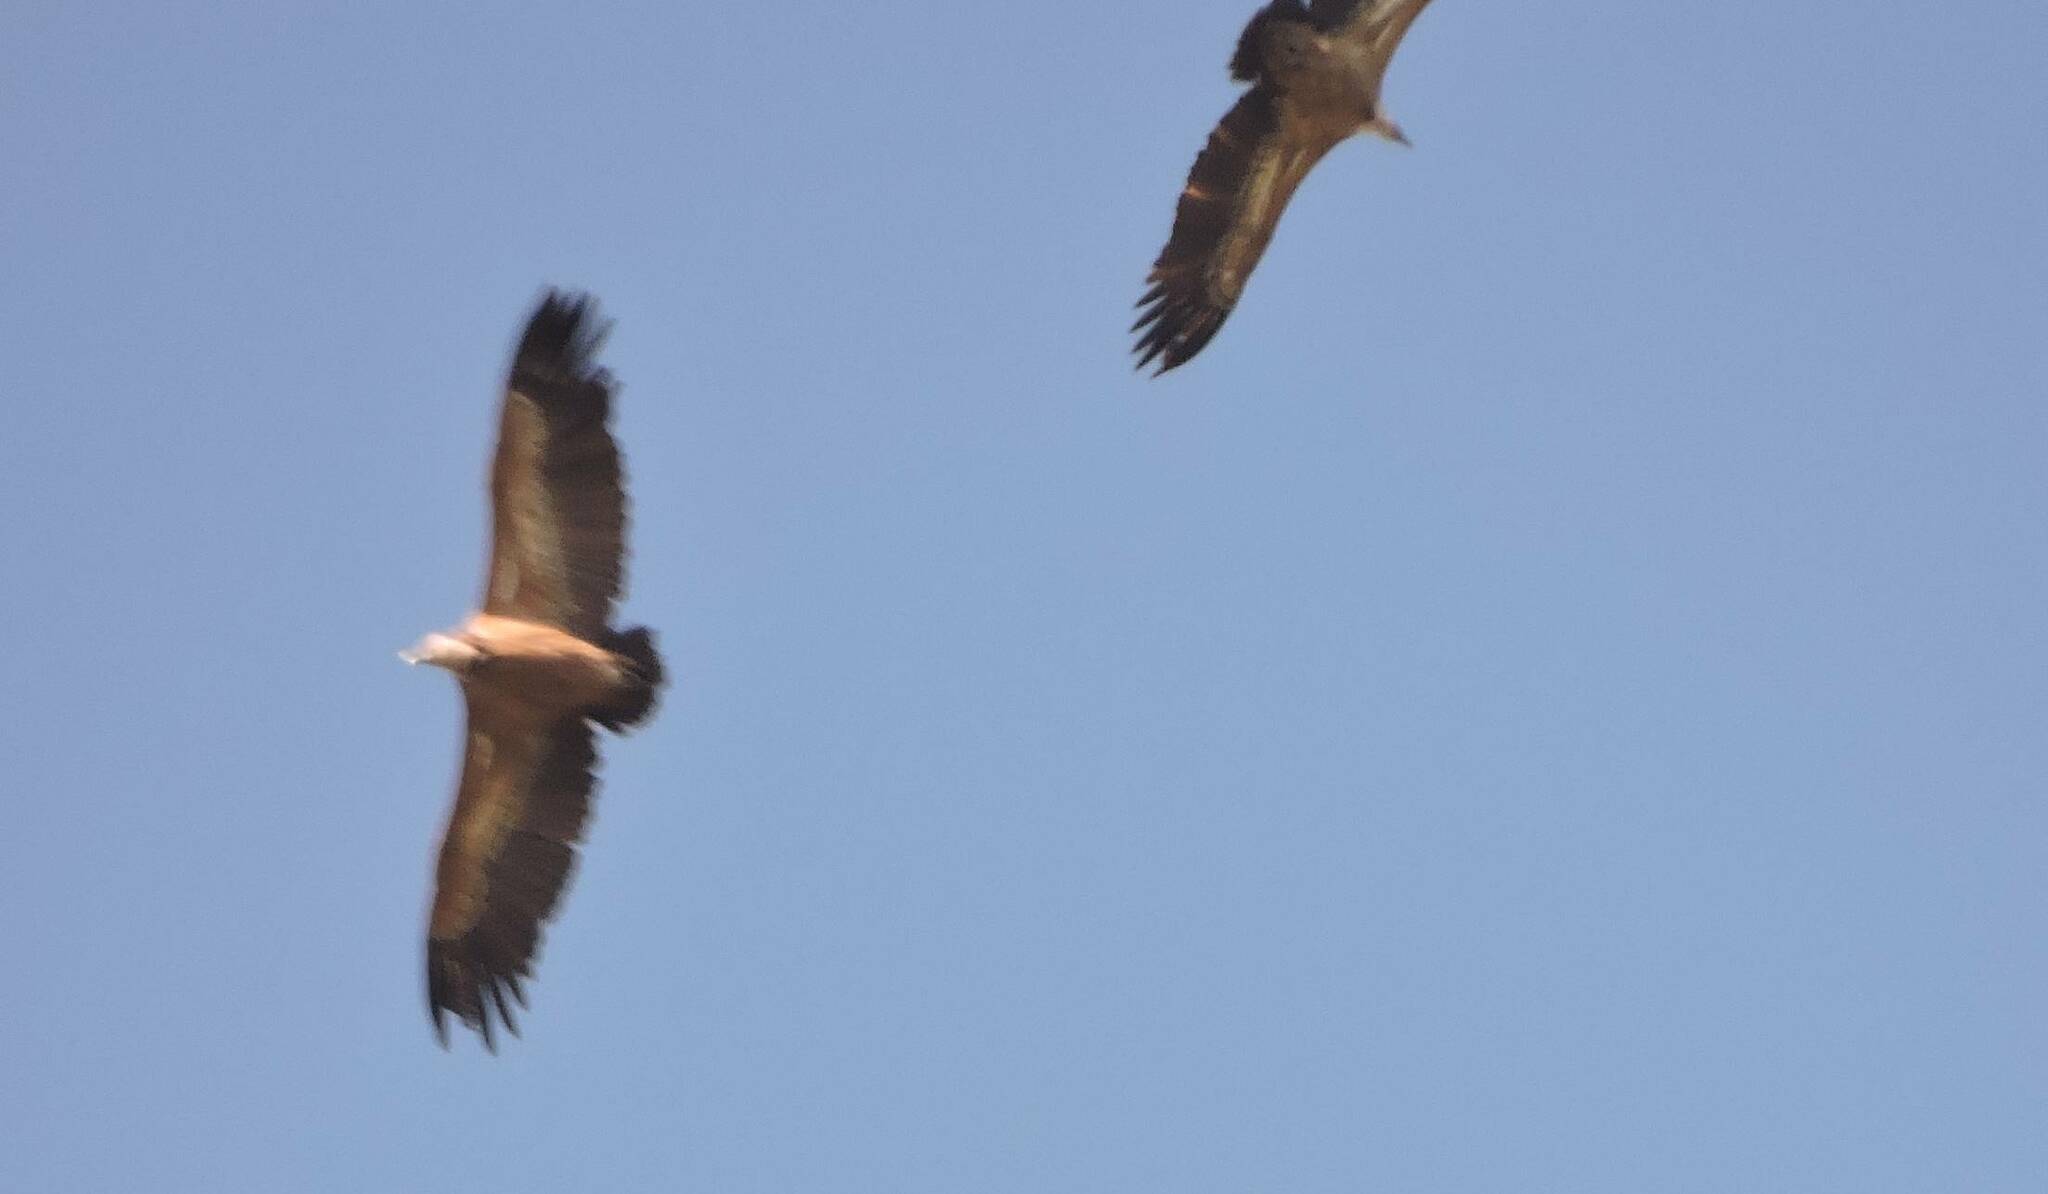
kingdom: Animalia
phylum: Chordata
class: Aves
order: Accipitriformes
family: Accipitridae
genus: Gyps
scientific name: Gyps fulvus
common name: Griffon vulture
